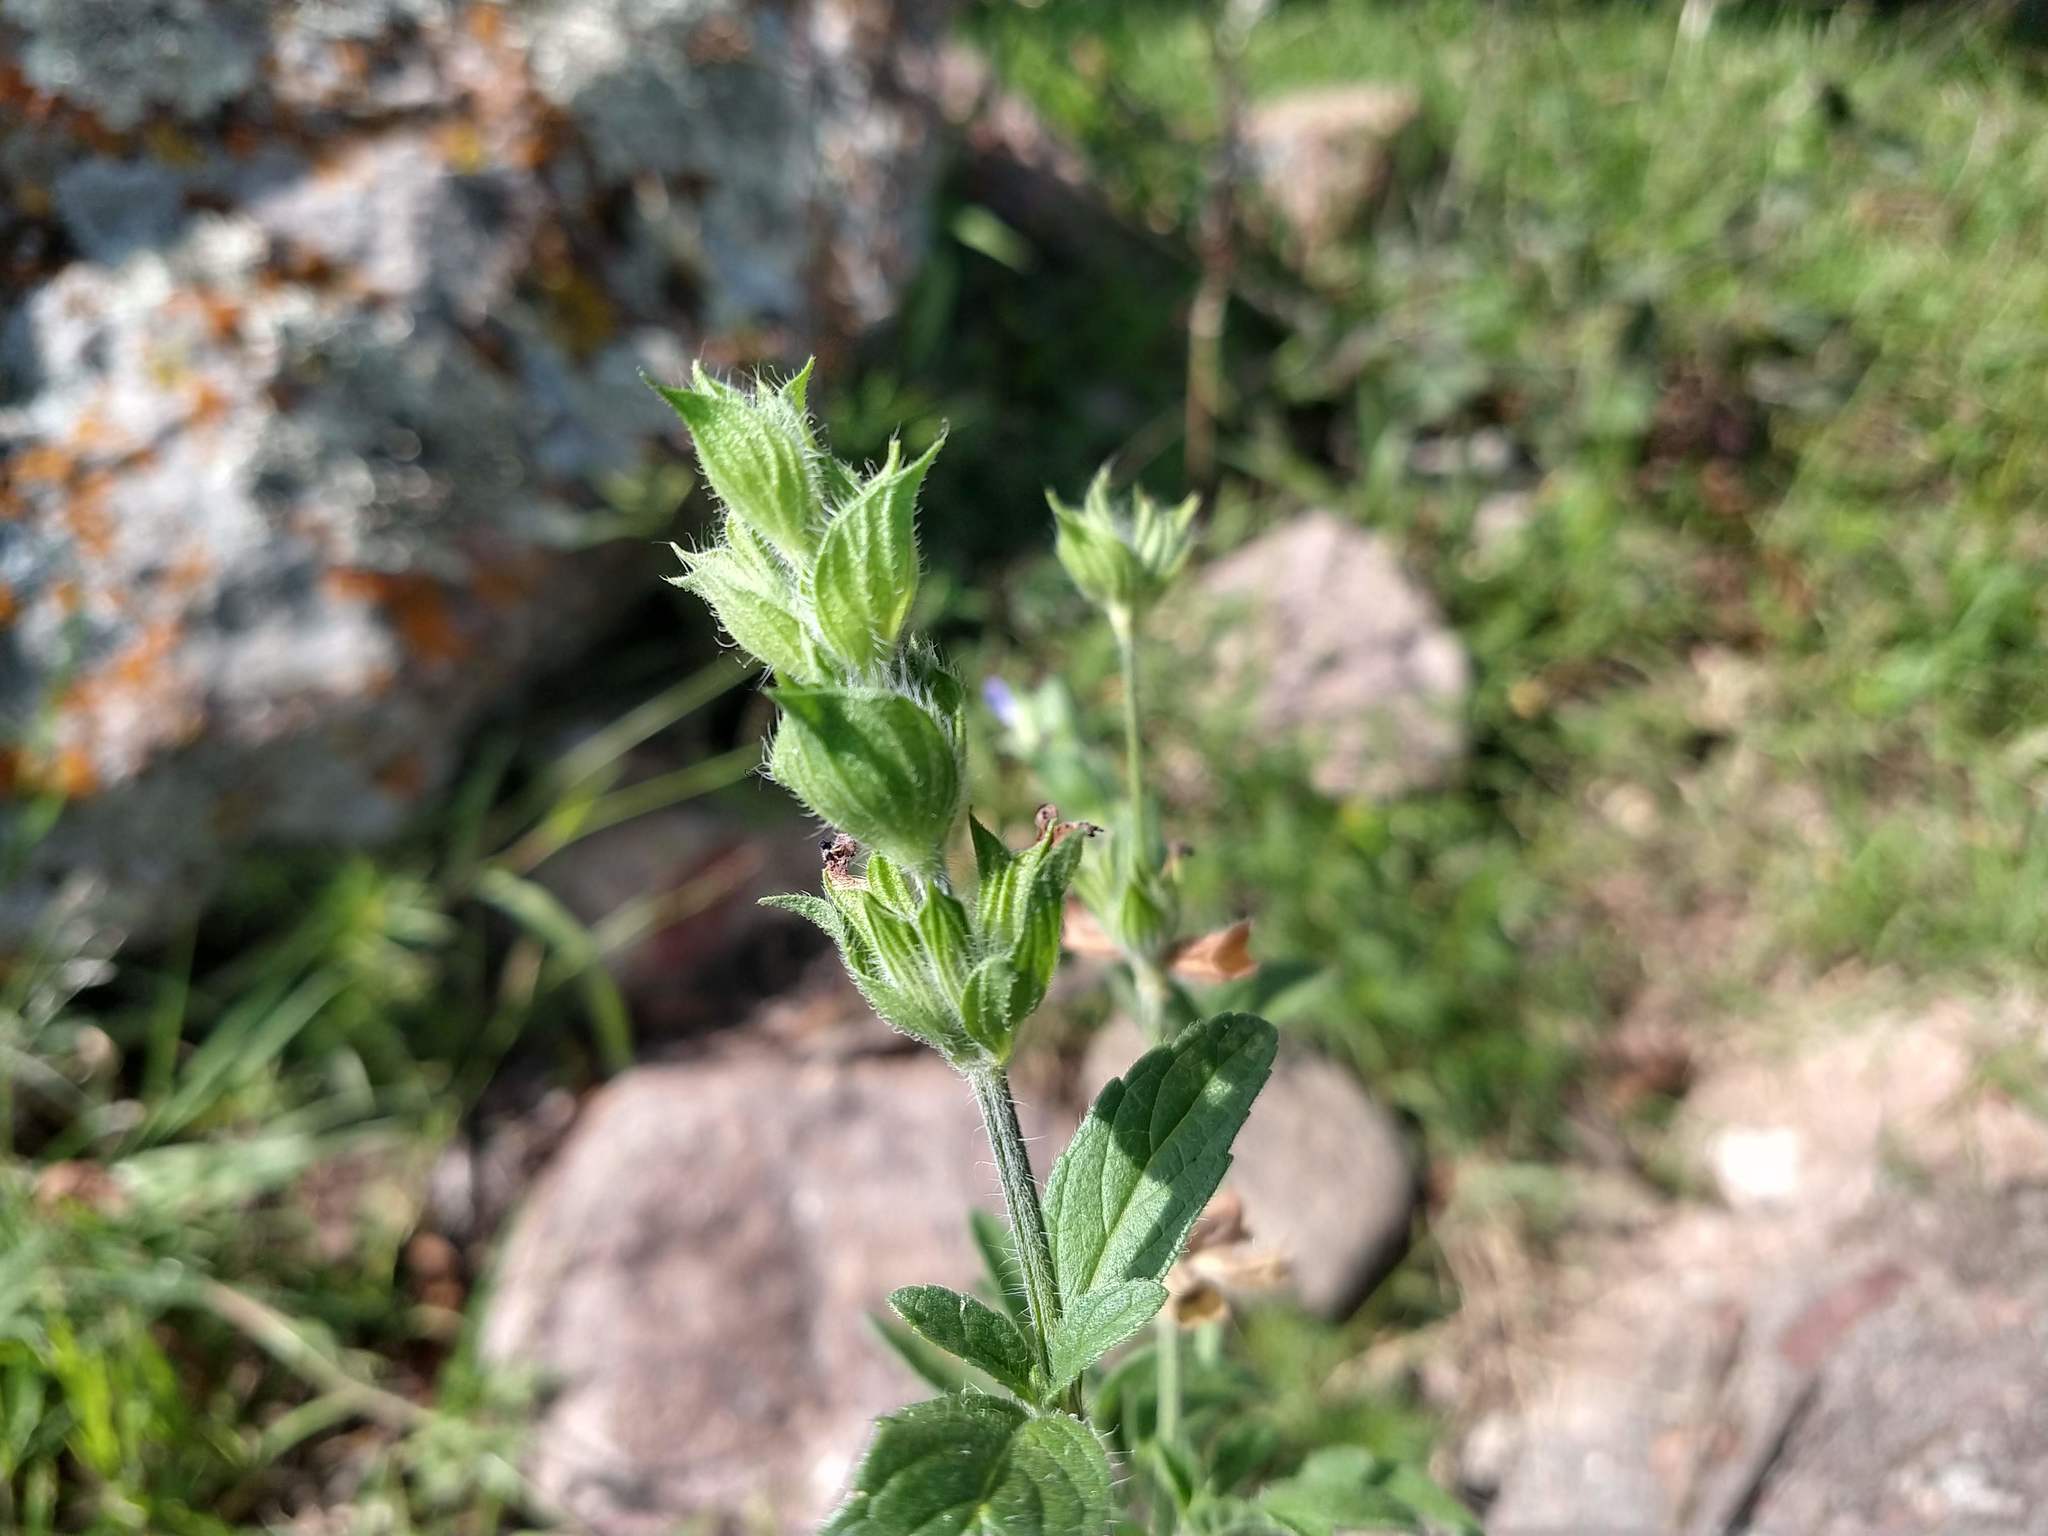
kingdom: Plantae
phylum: Tracheophyta
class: Magnoliopsida
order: Lamiales
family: Lamiaceae
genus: Salvia
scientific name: Salvia hirsuta
